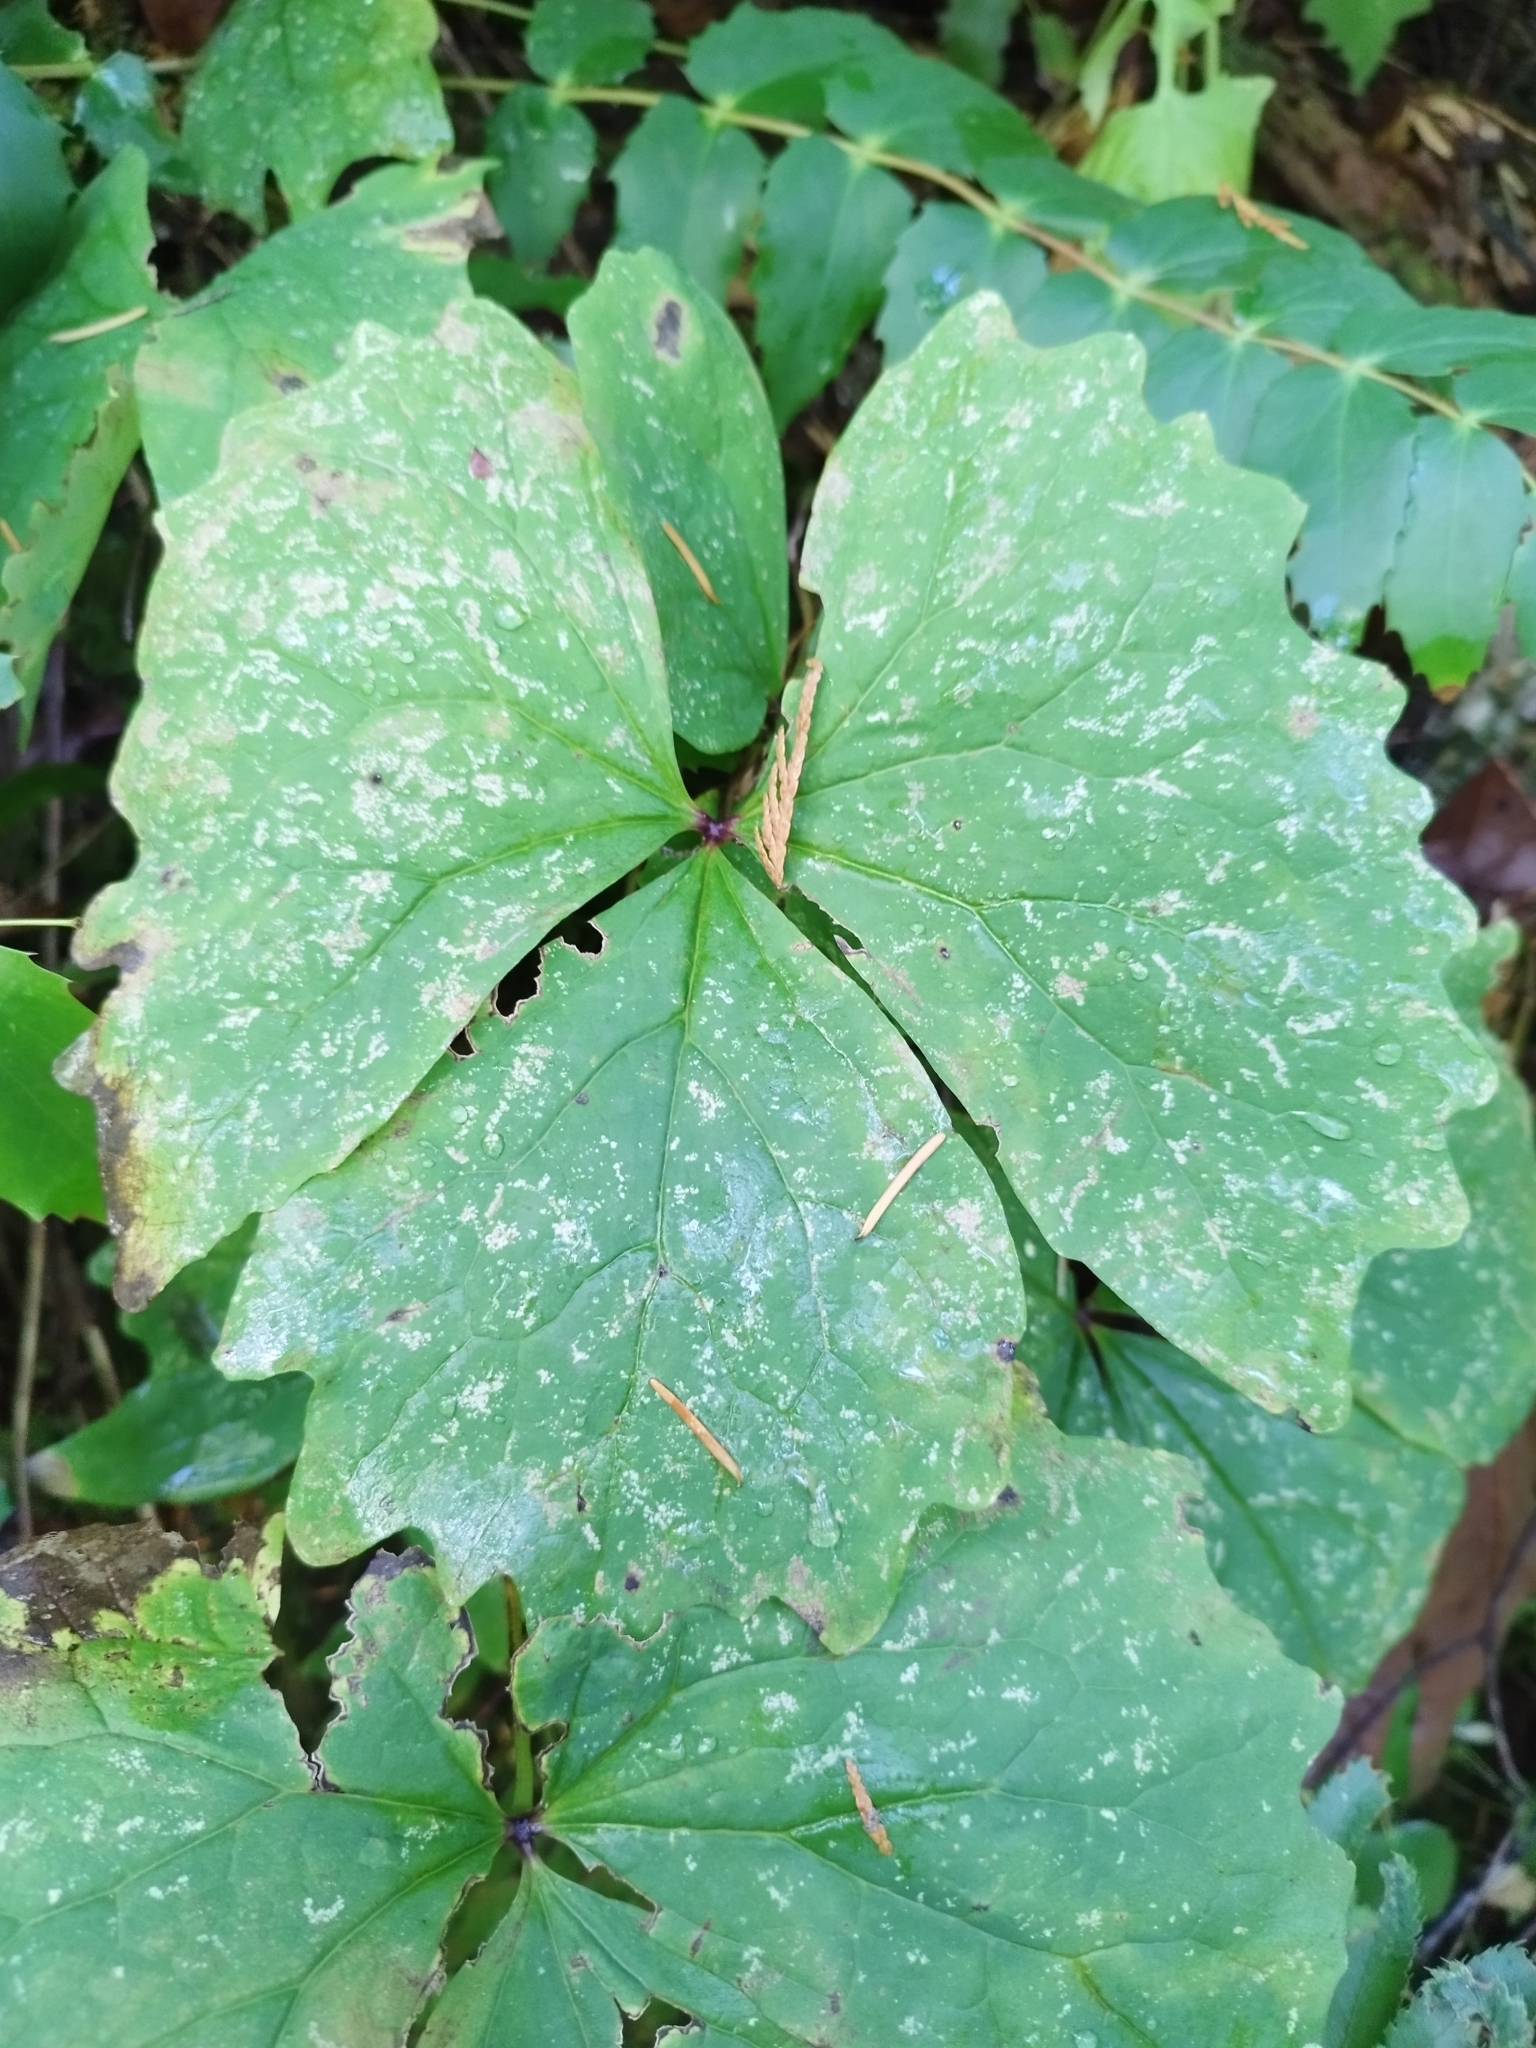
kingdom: Plantae
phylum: Tracheophyta
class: Magnoliopsida
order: Ranunculales
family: Berberidaceae
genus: Achlys
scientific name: Achlys triphylla
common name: Vanilla-leaf
